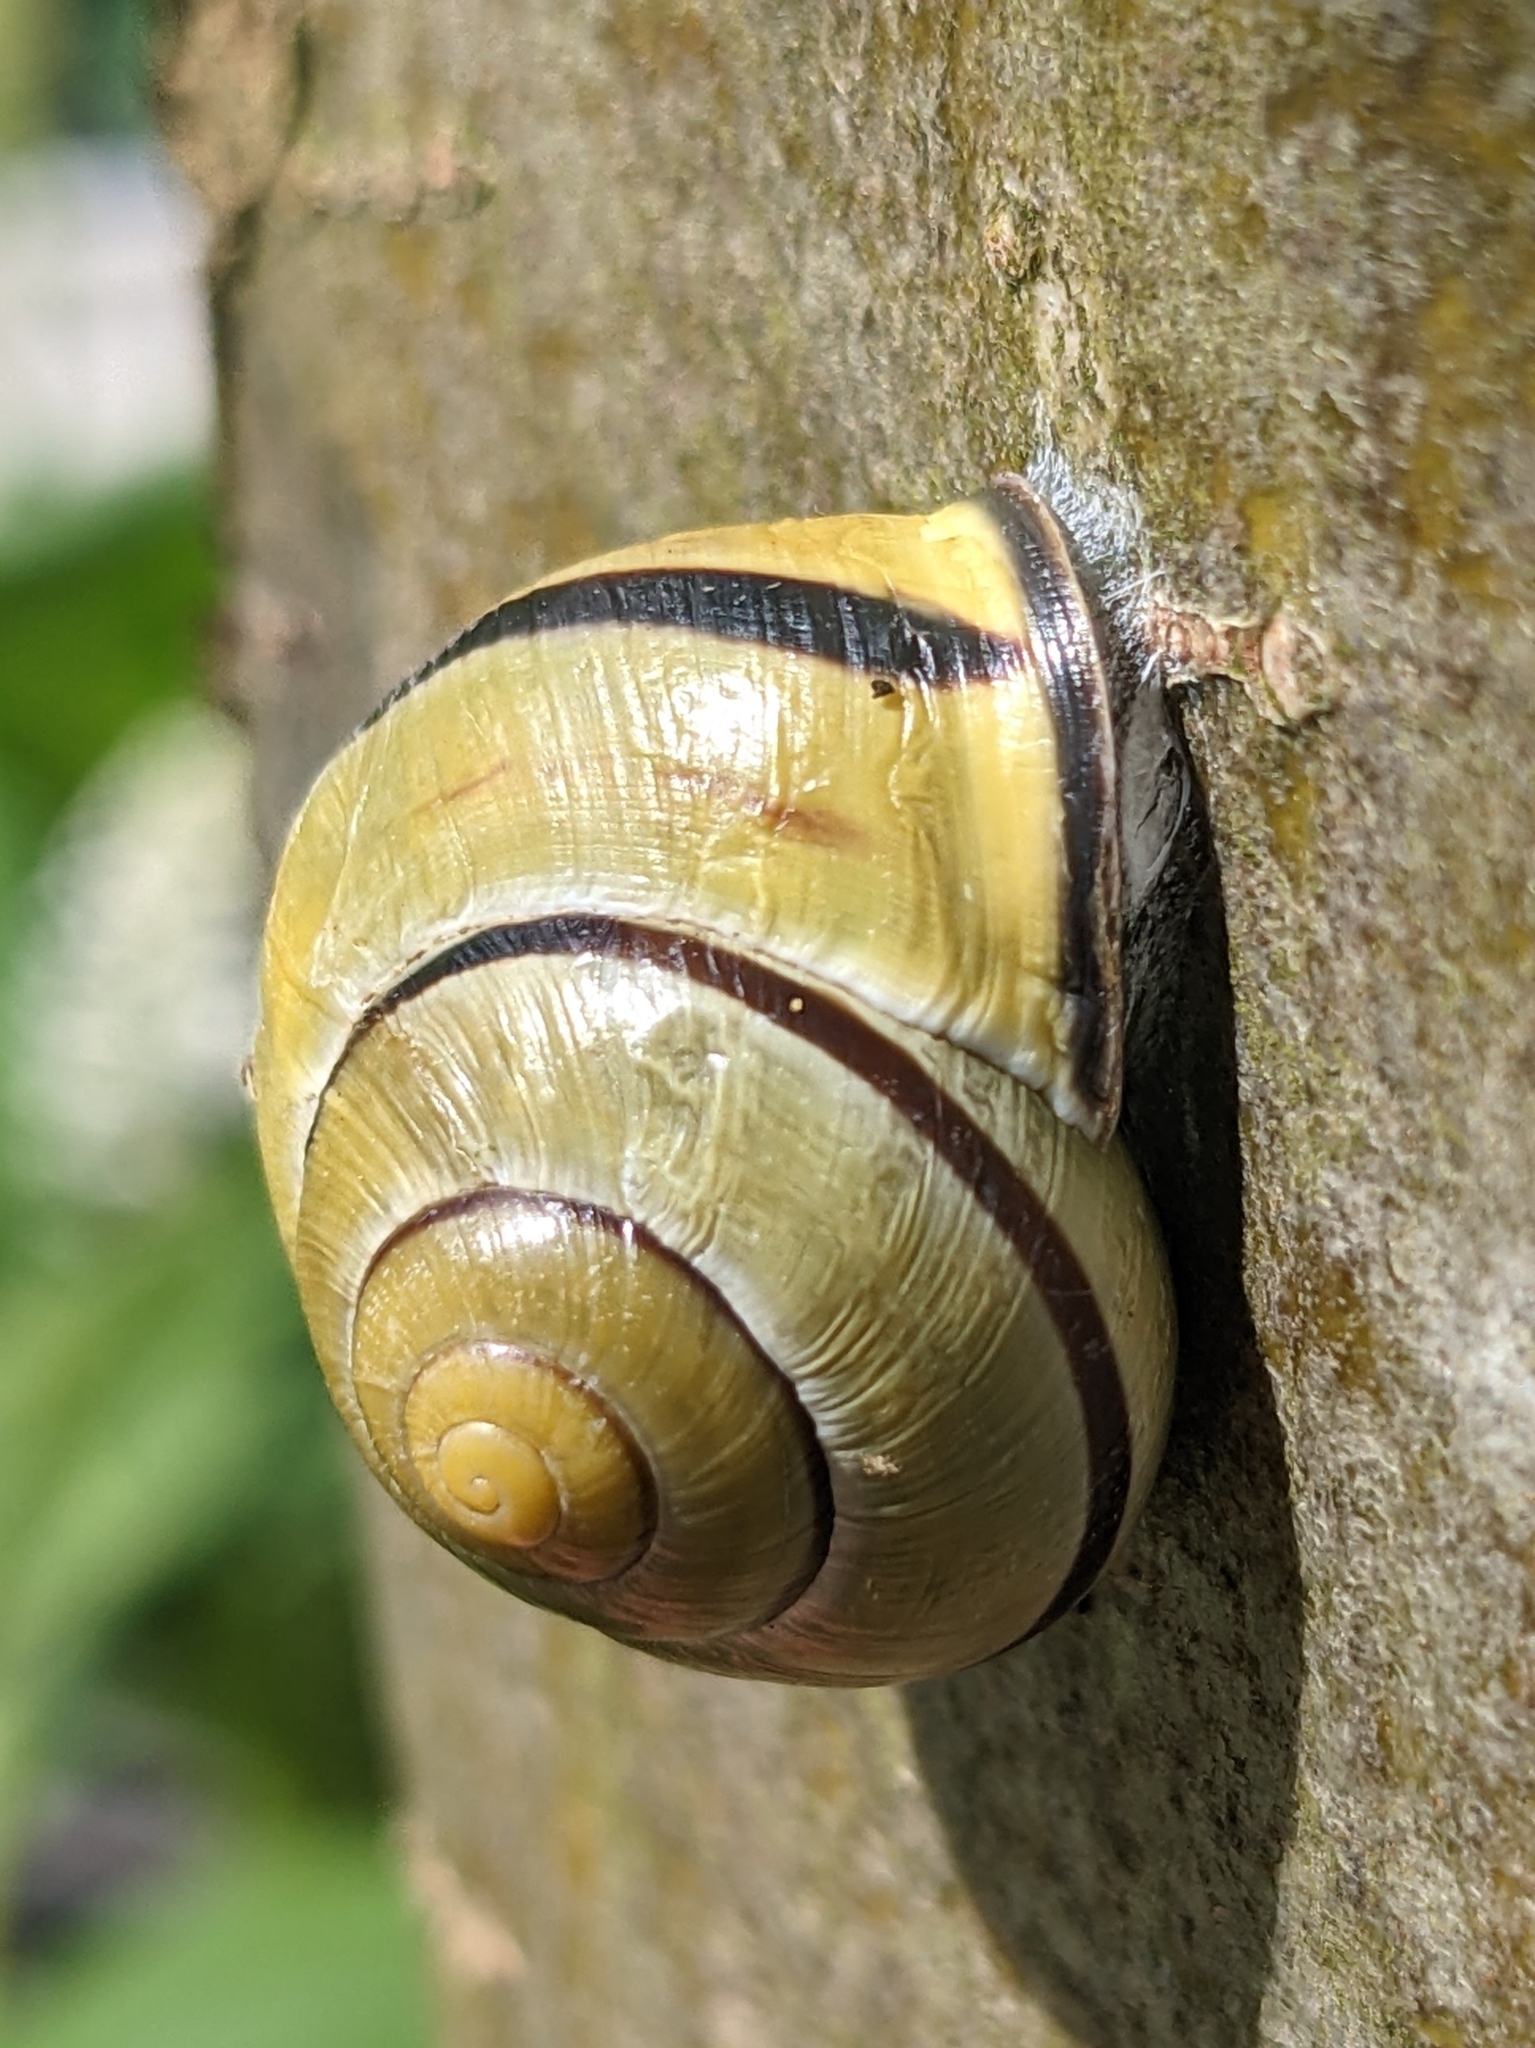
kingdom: Animalia
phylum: Mollusca
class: Gastropoda
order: Stylommatophora
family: Helicidae
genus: Cepaea
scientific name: Cepaea nemoralis
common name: Grovesnail
